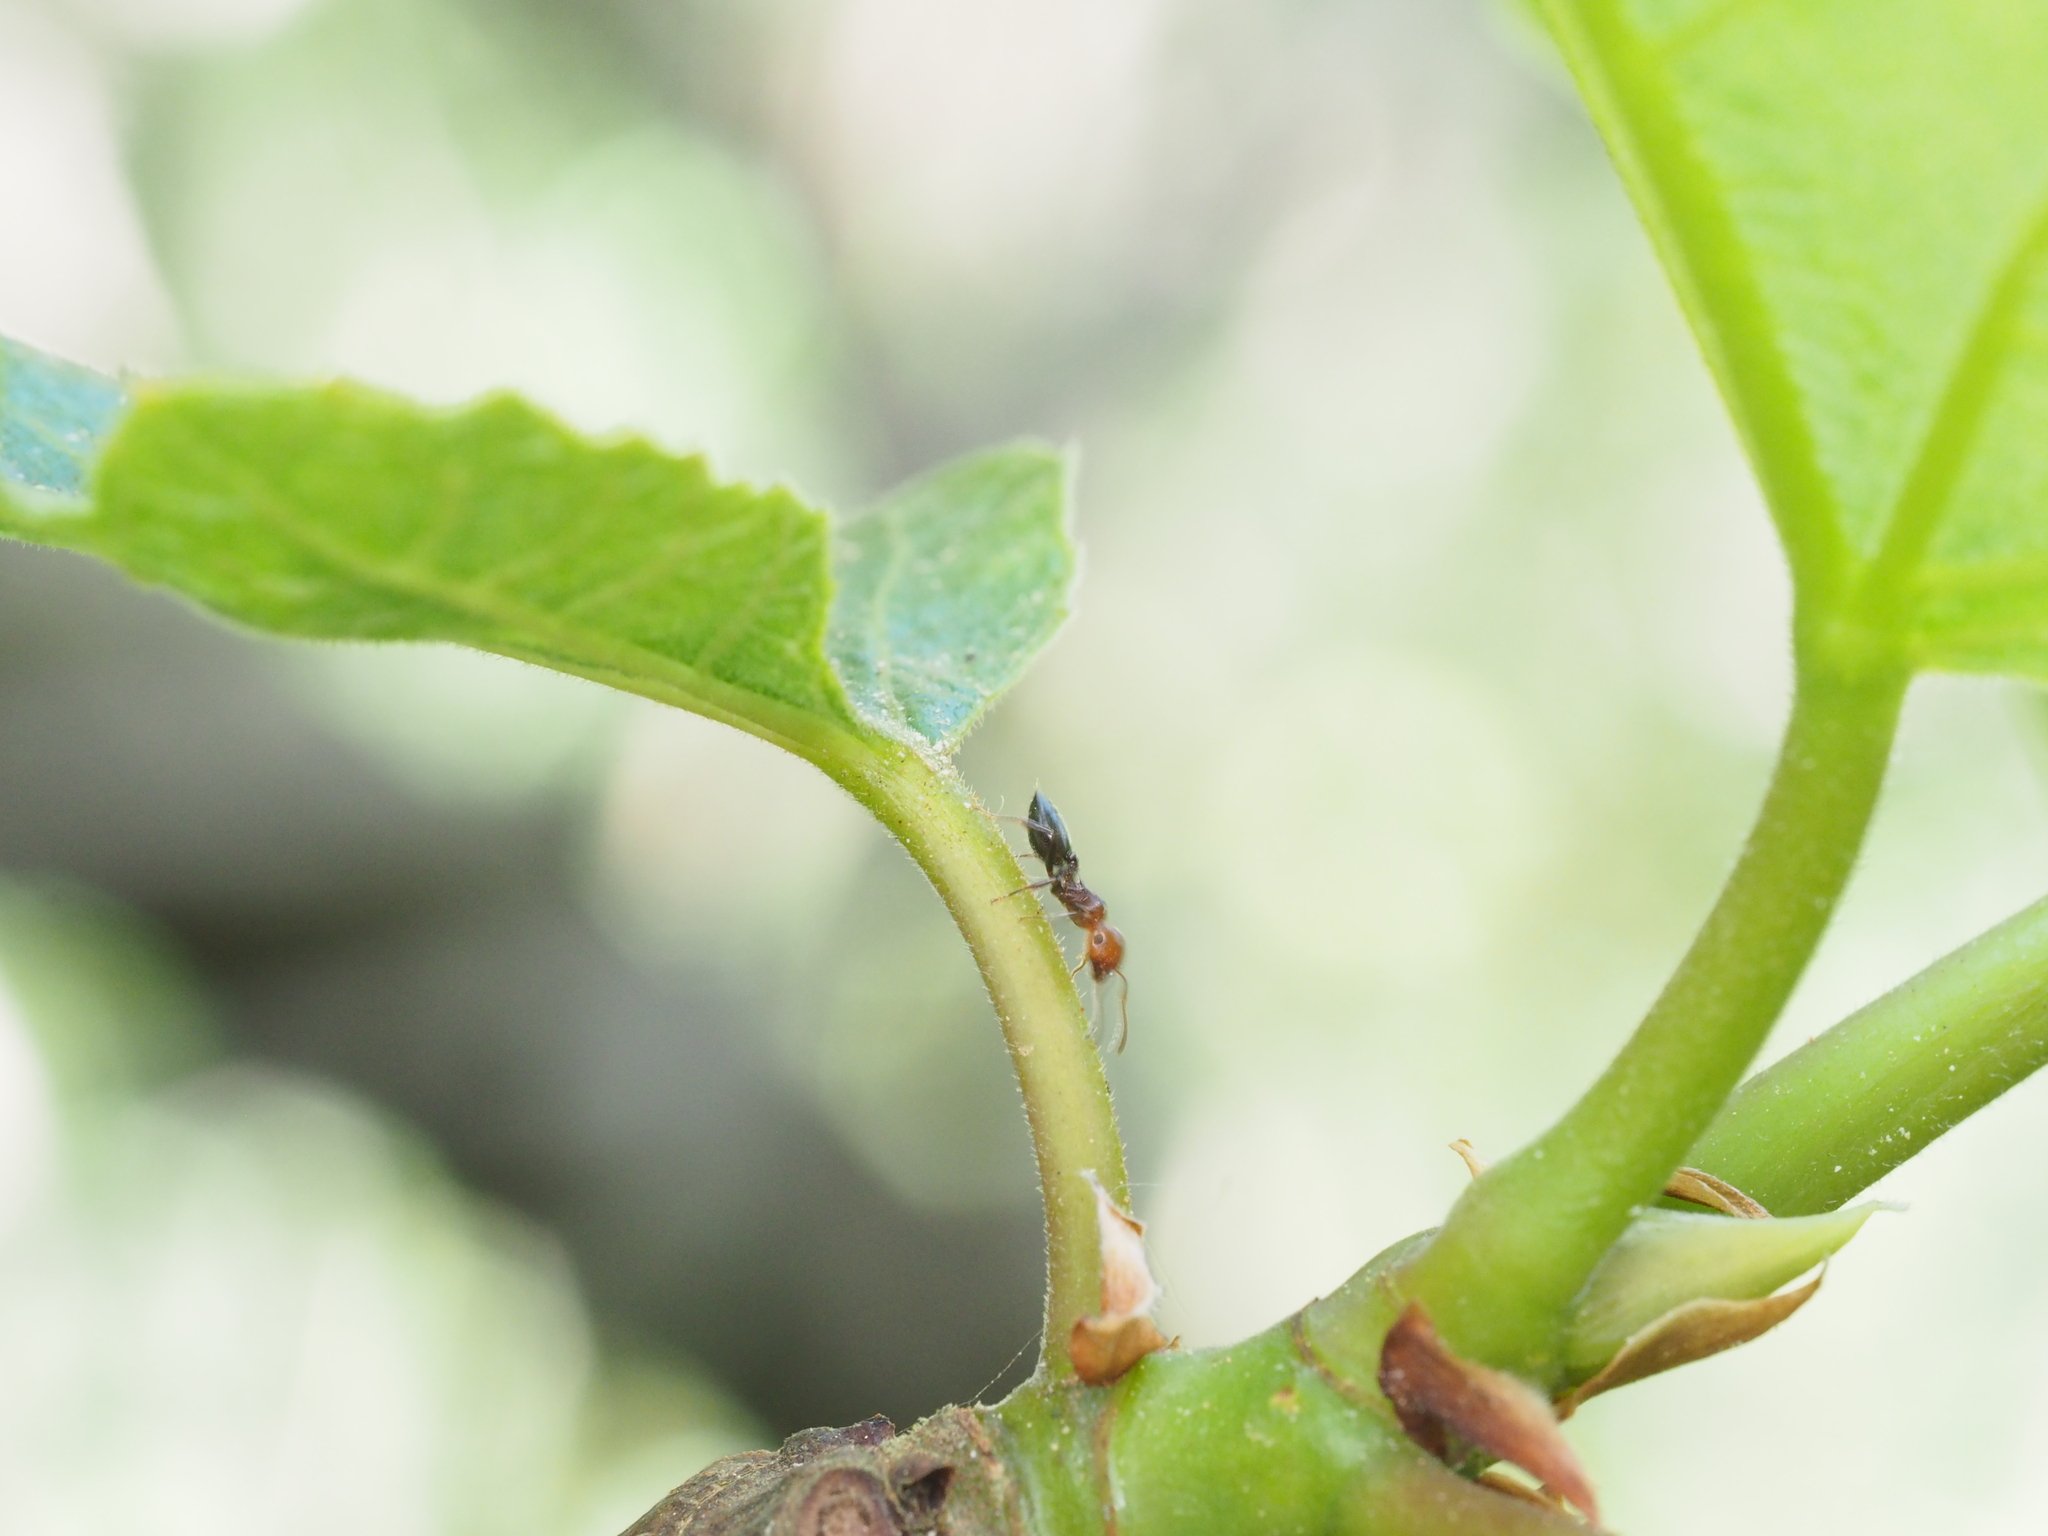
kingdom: Animalia
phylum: Arthropoda
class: Insecta
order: Hymenoptera
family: Formicidae
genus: Crematogaster
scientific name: Crematogaster scutellaris
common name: Fourmi du liège
